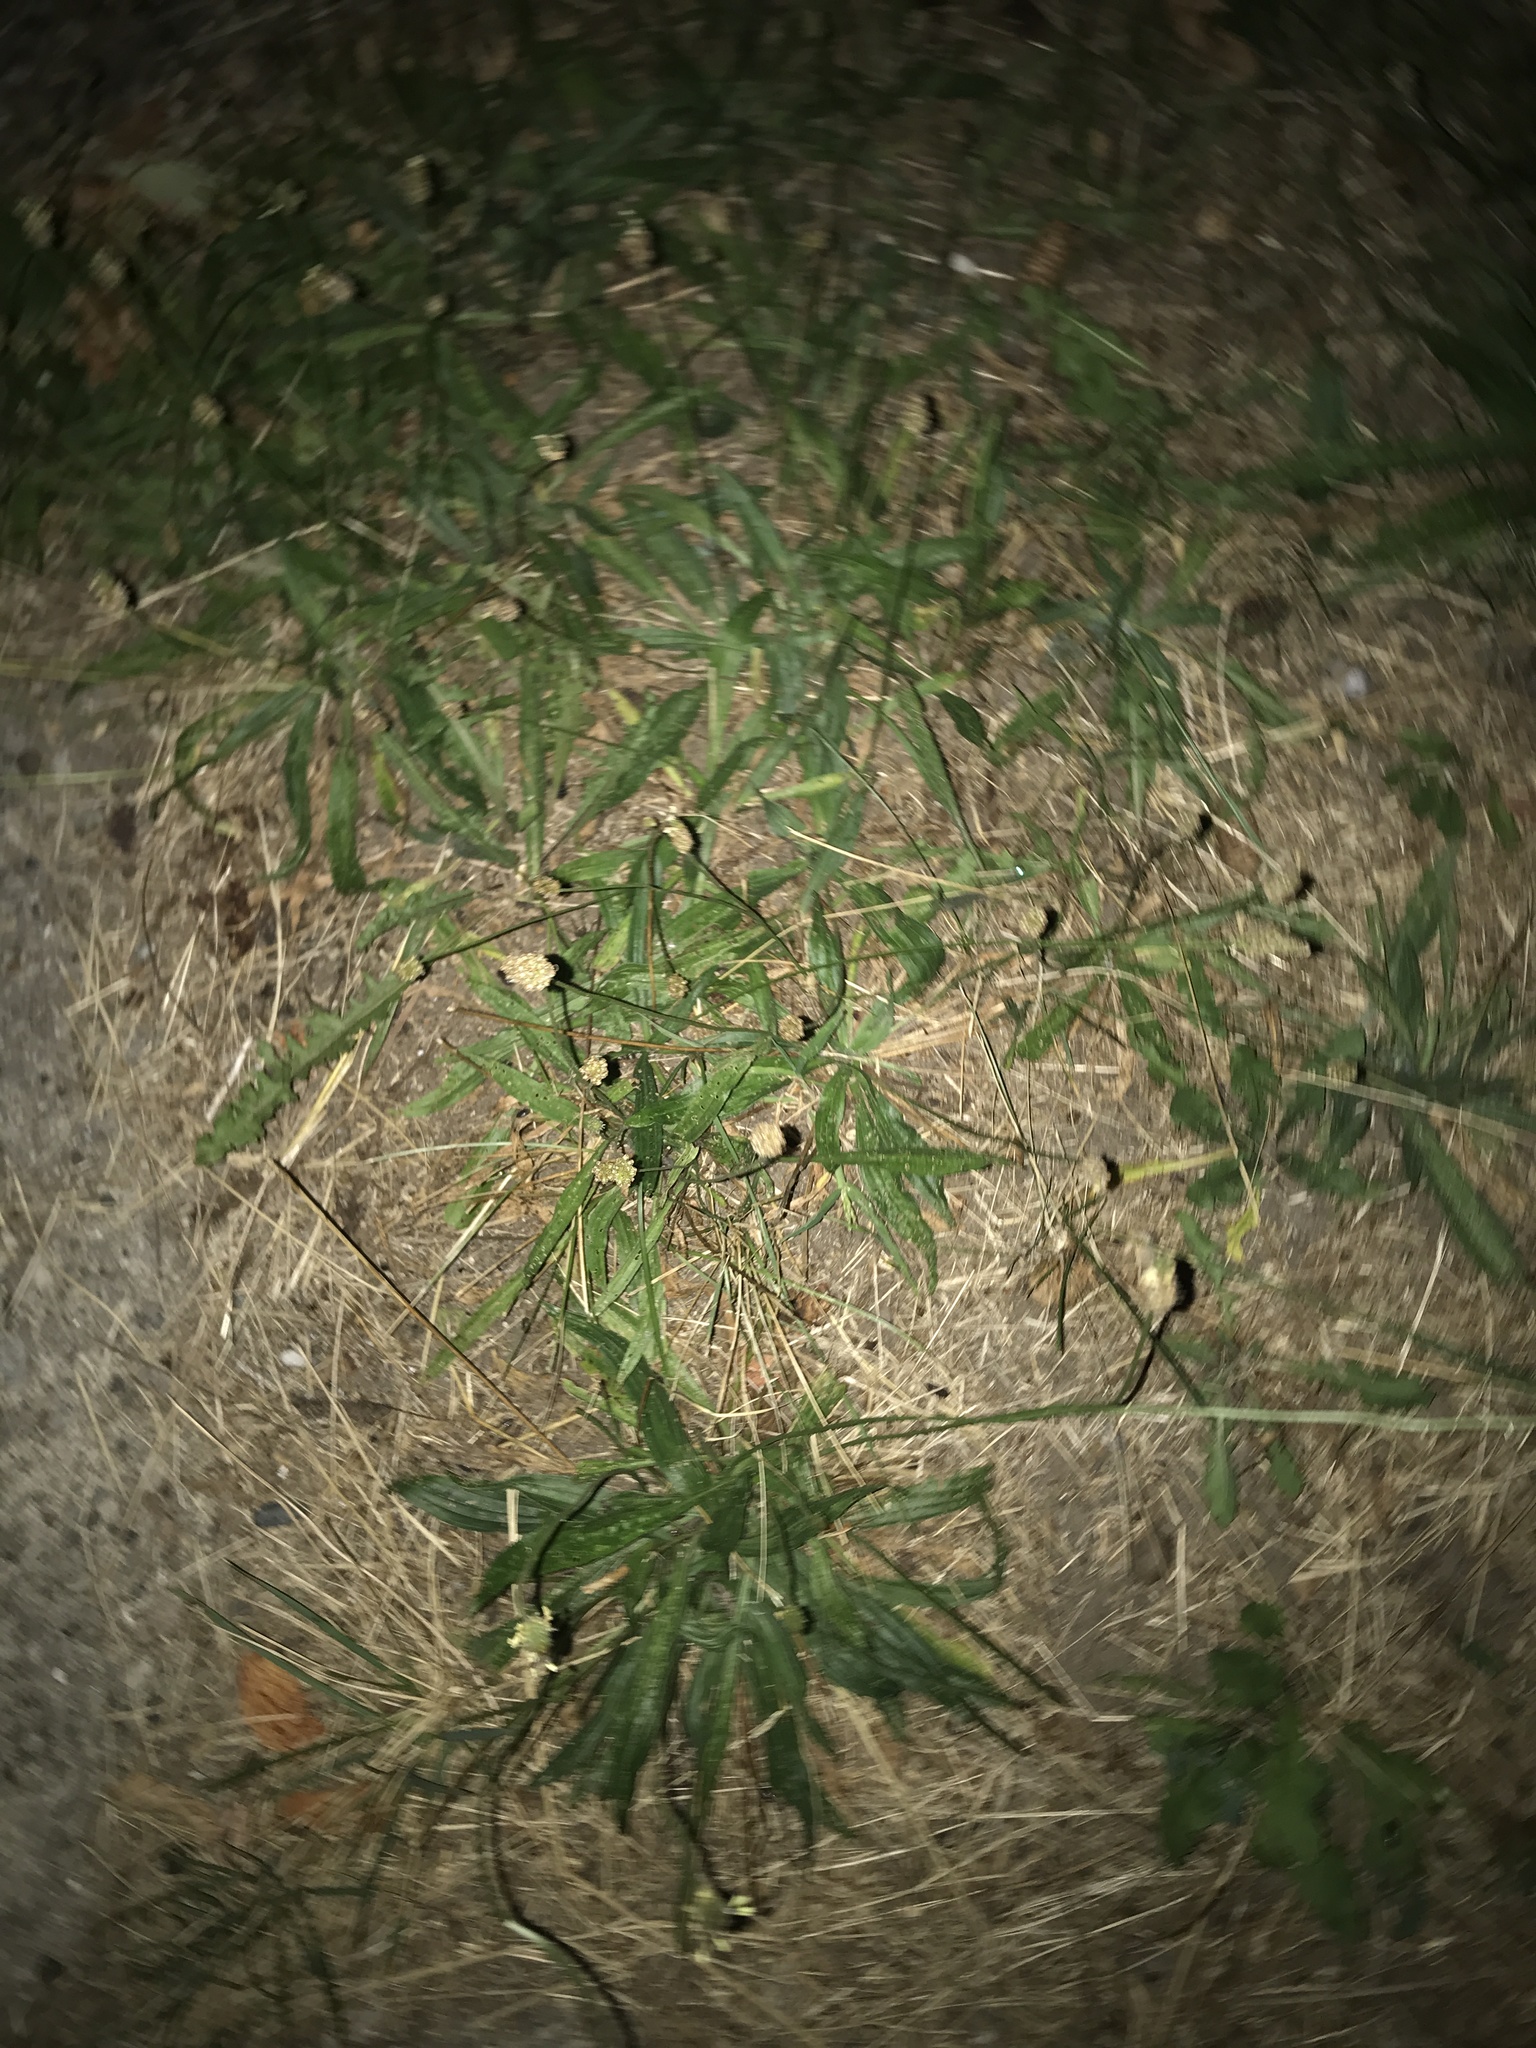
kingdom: Plantae
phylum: Tracheophyta
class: Magnoliopsida
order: Lamiales
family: Plantaginaceae
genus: Plantago
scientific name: Plantago lanceolata
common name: Ribwort plantain
